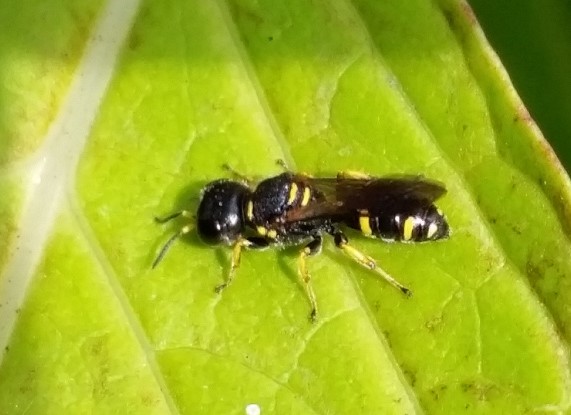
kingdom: Animalia
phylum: Arthropoda
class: Insecta
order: Hymenoptera
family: Crabronidae
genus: Ectemnius
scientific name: Ectemnius continuus
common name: Common ectemnius
